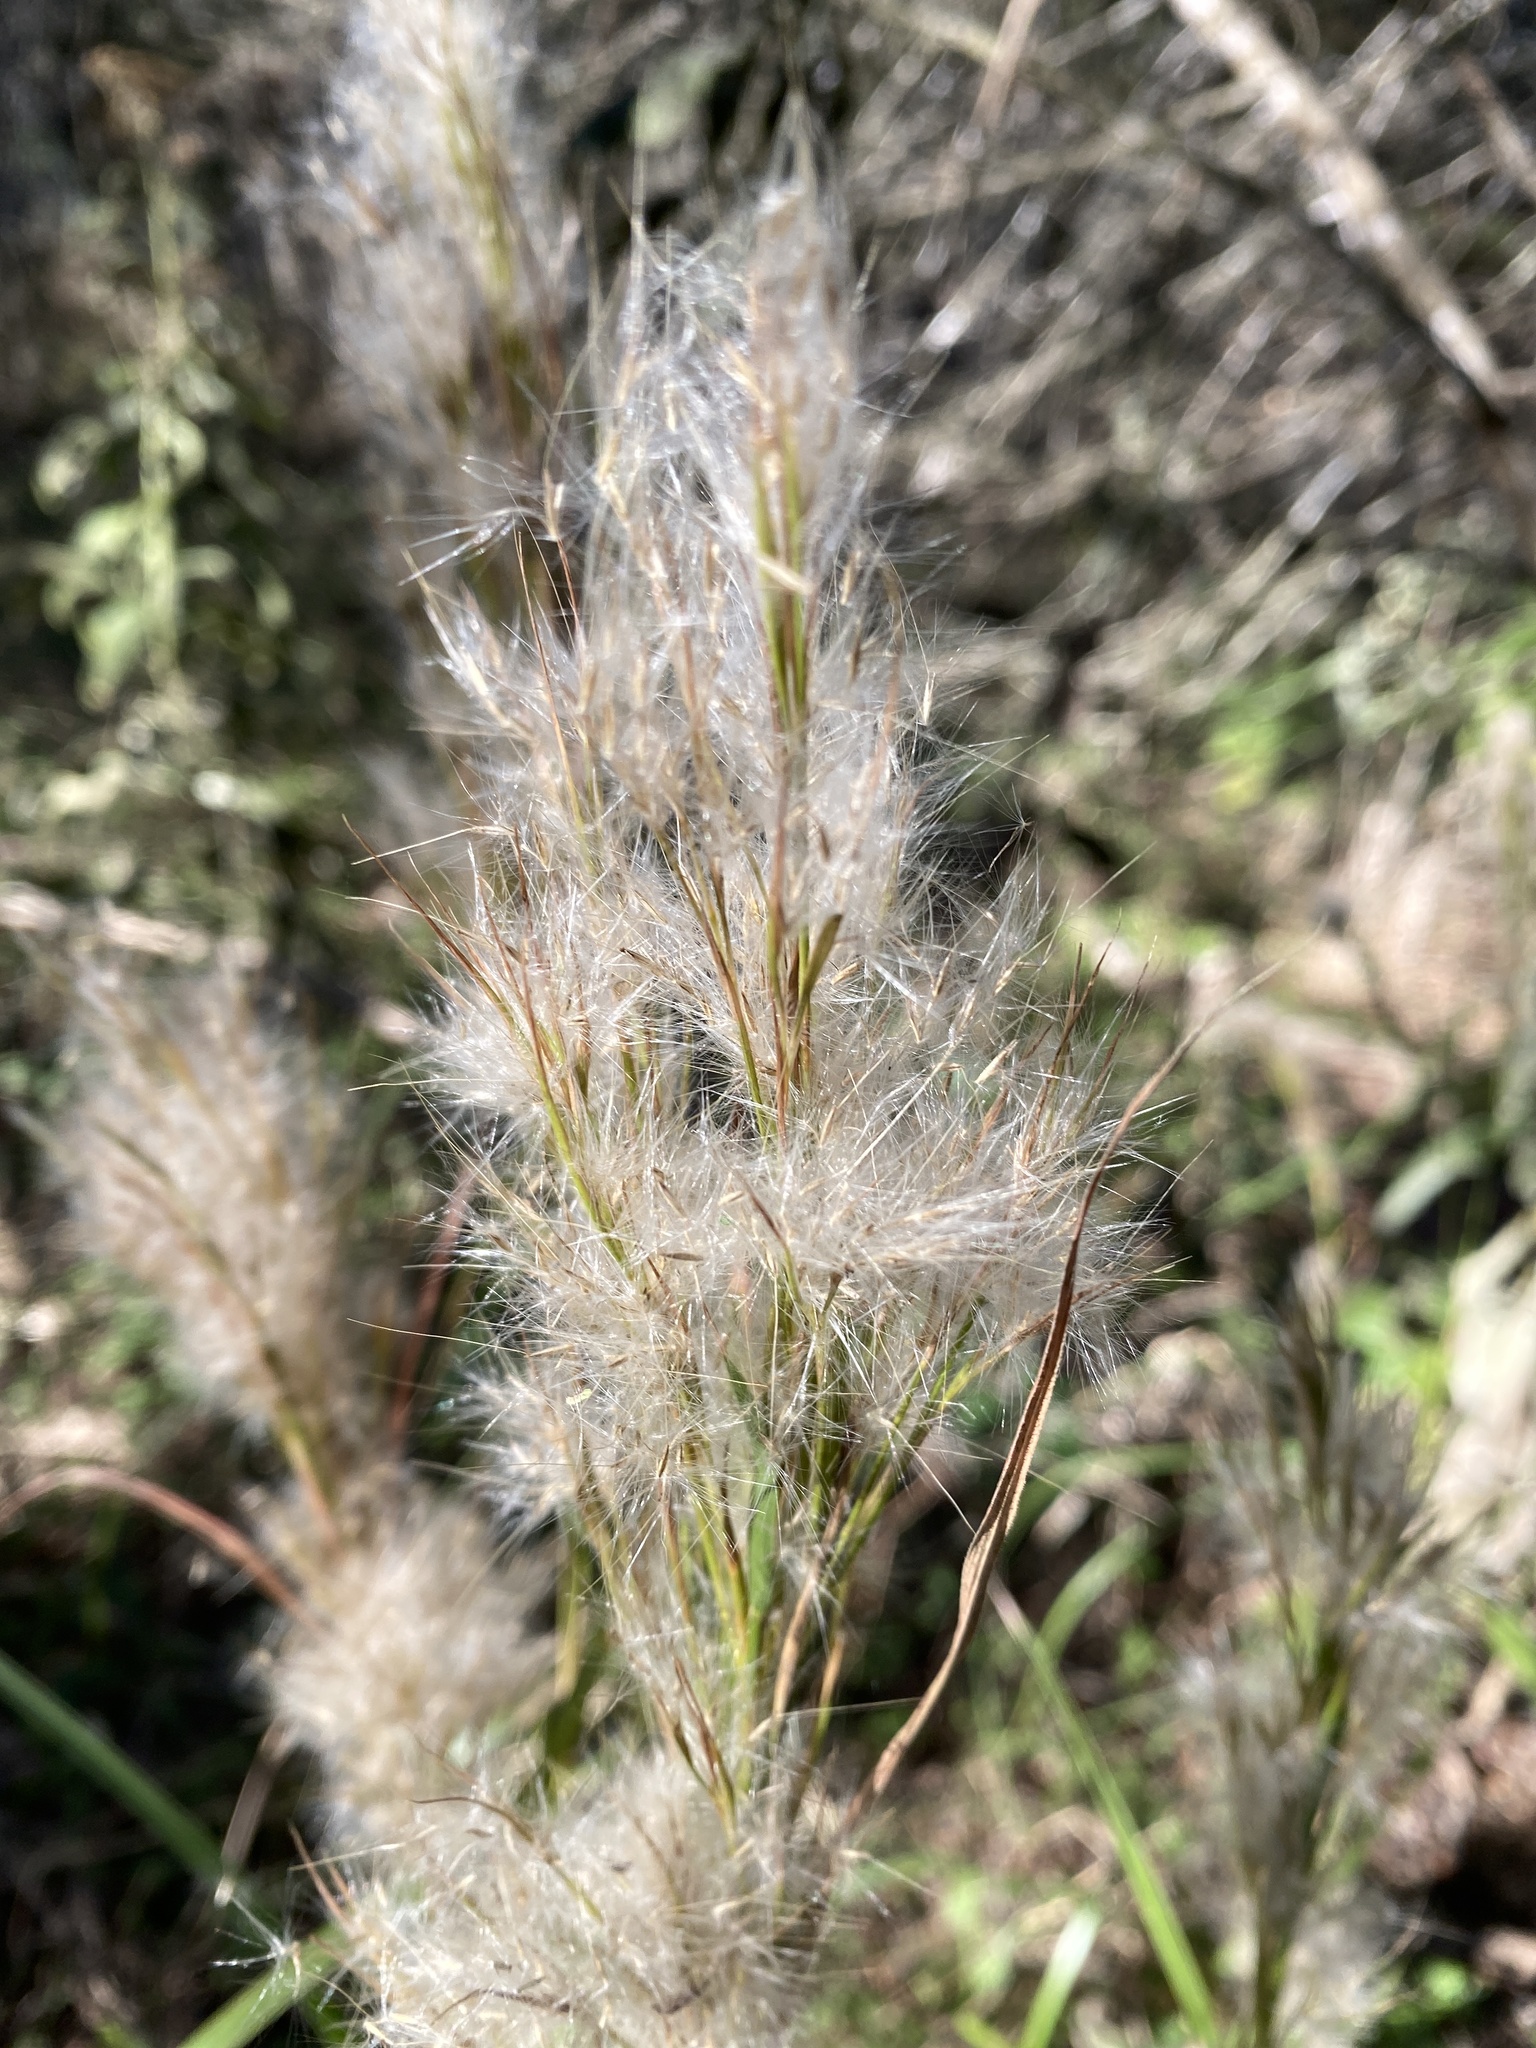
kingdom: Plantae
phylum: Tracheophyta
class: Liliopsida
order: Poales
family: Poaceae
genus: Andropogon
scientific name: Andropogon tenuispatheus
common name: Bushy bluestem
